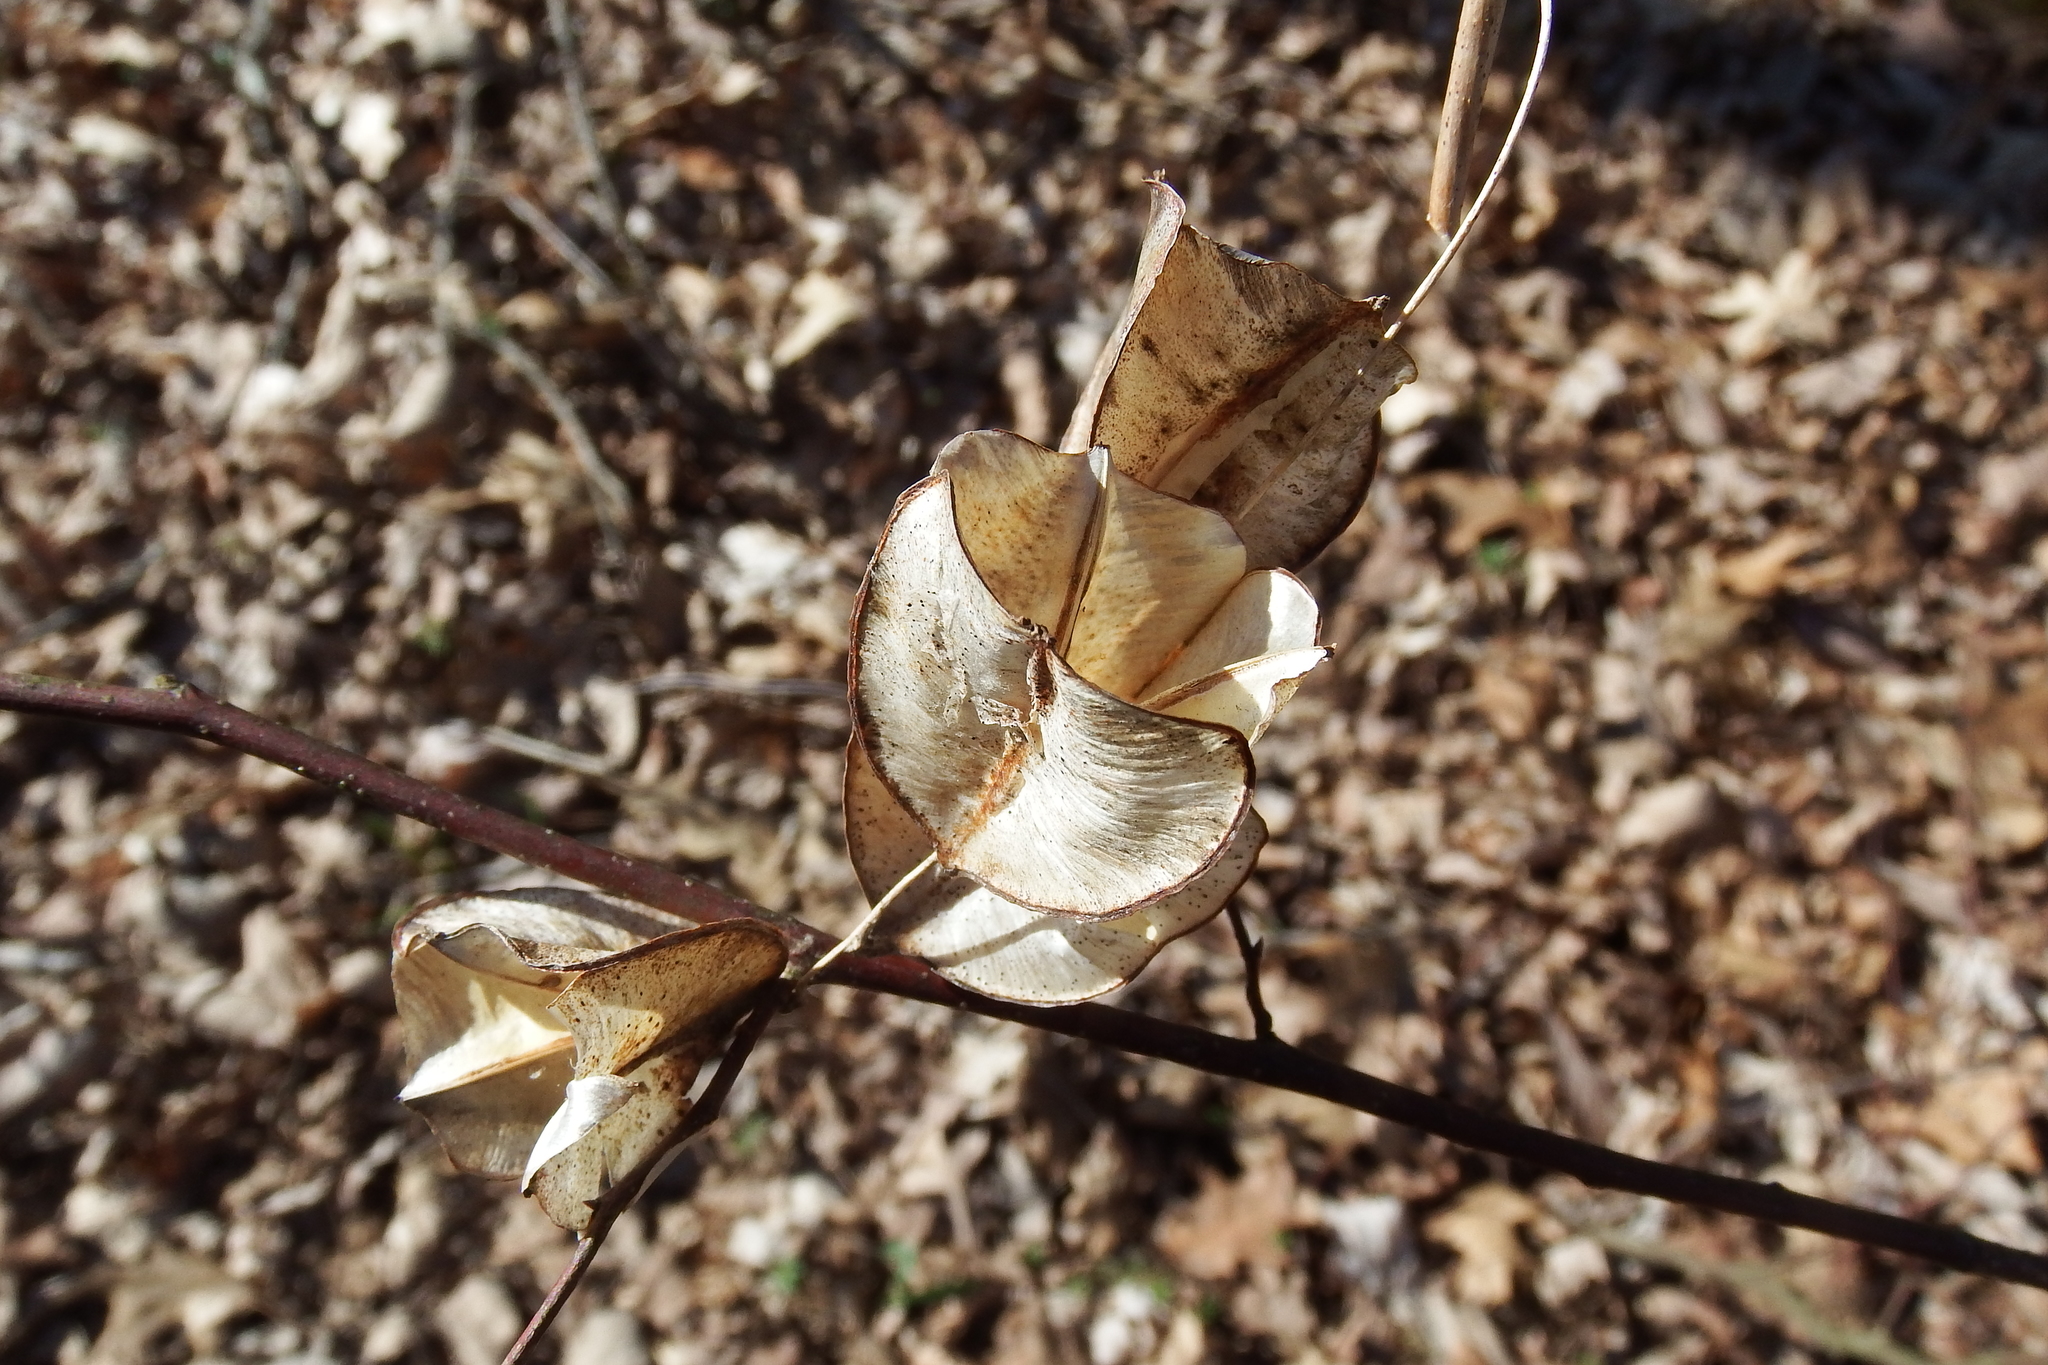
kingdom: Plantae
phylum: Tracheophyta
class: Liliopsida
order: Dioscoreales
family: Dioscoreaceae
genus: Dioscorea
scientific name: Dioscorea villosa
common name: Wild yam
